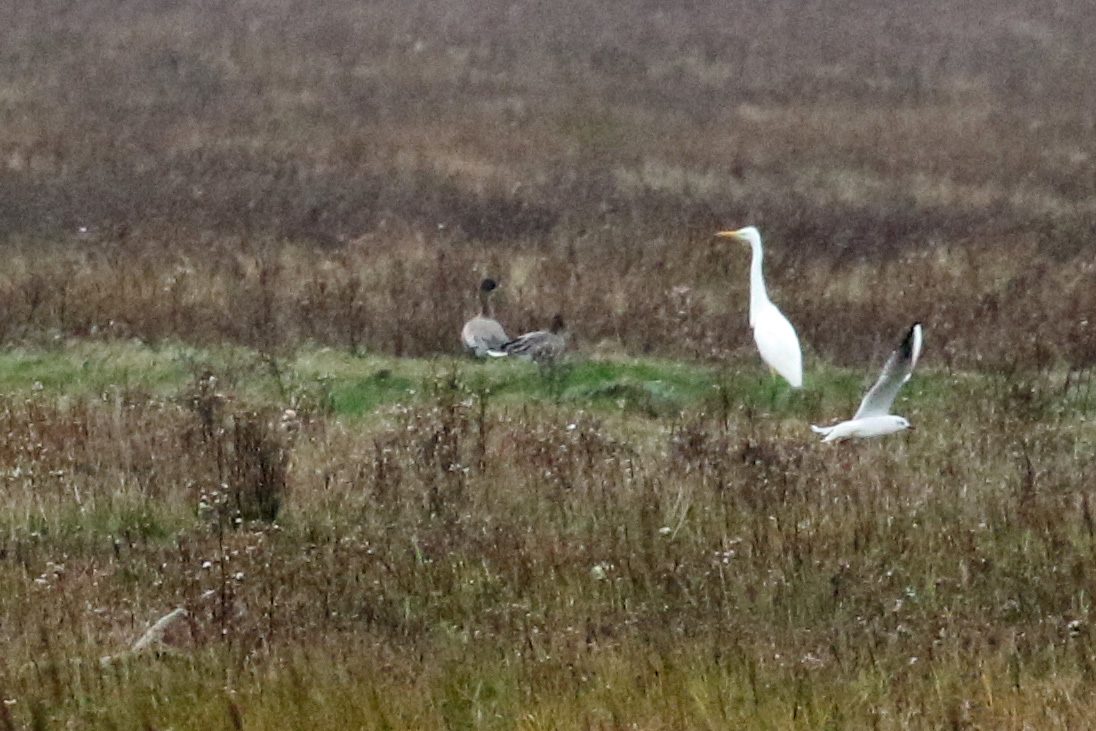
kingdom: Animalia
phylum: Chordata
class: Aves
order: Pelecaniformes
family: Ardeidae
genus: Ardea
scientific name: Ardea alba
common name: Great egret
